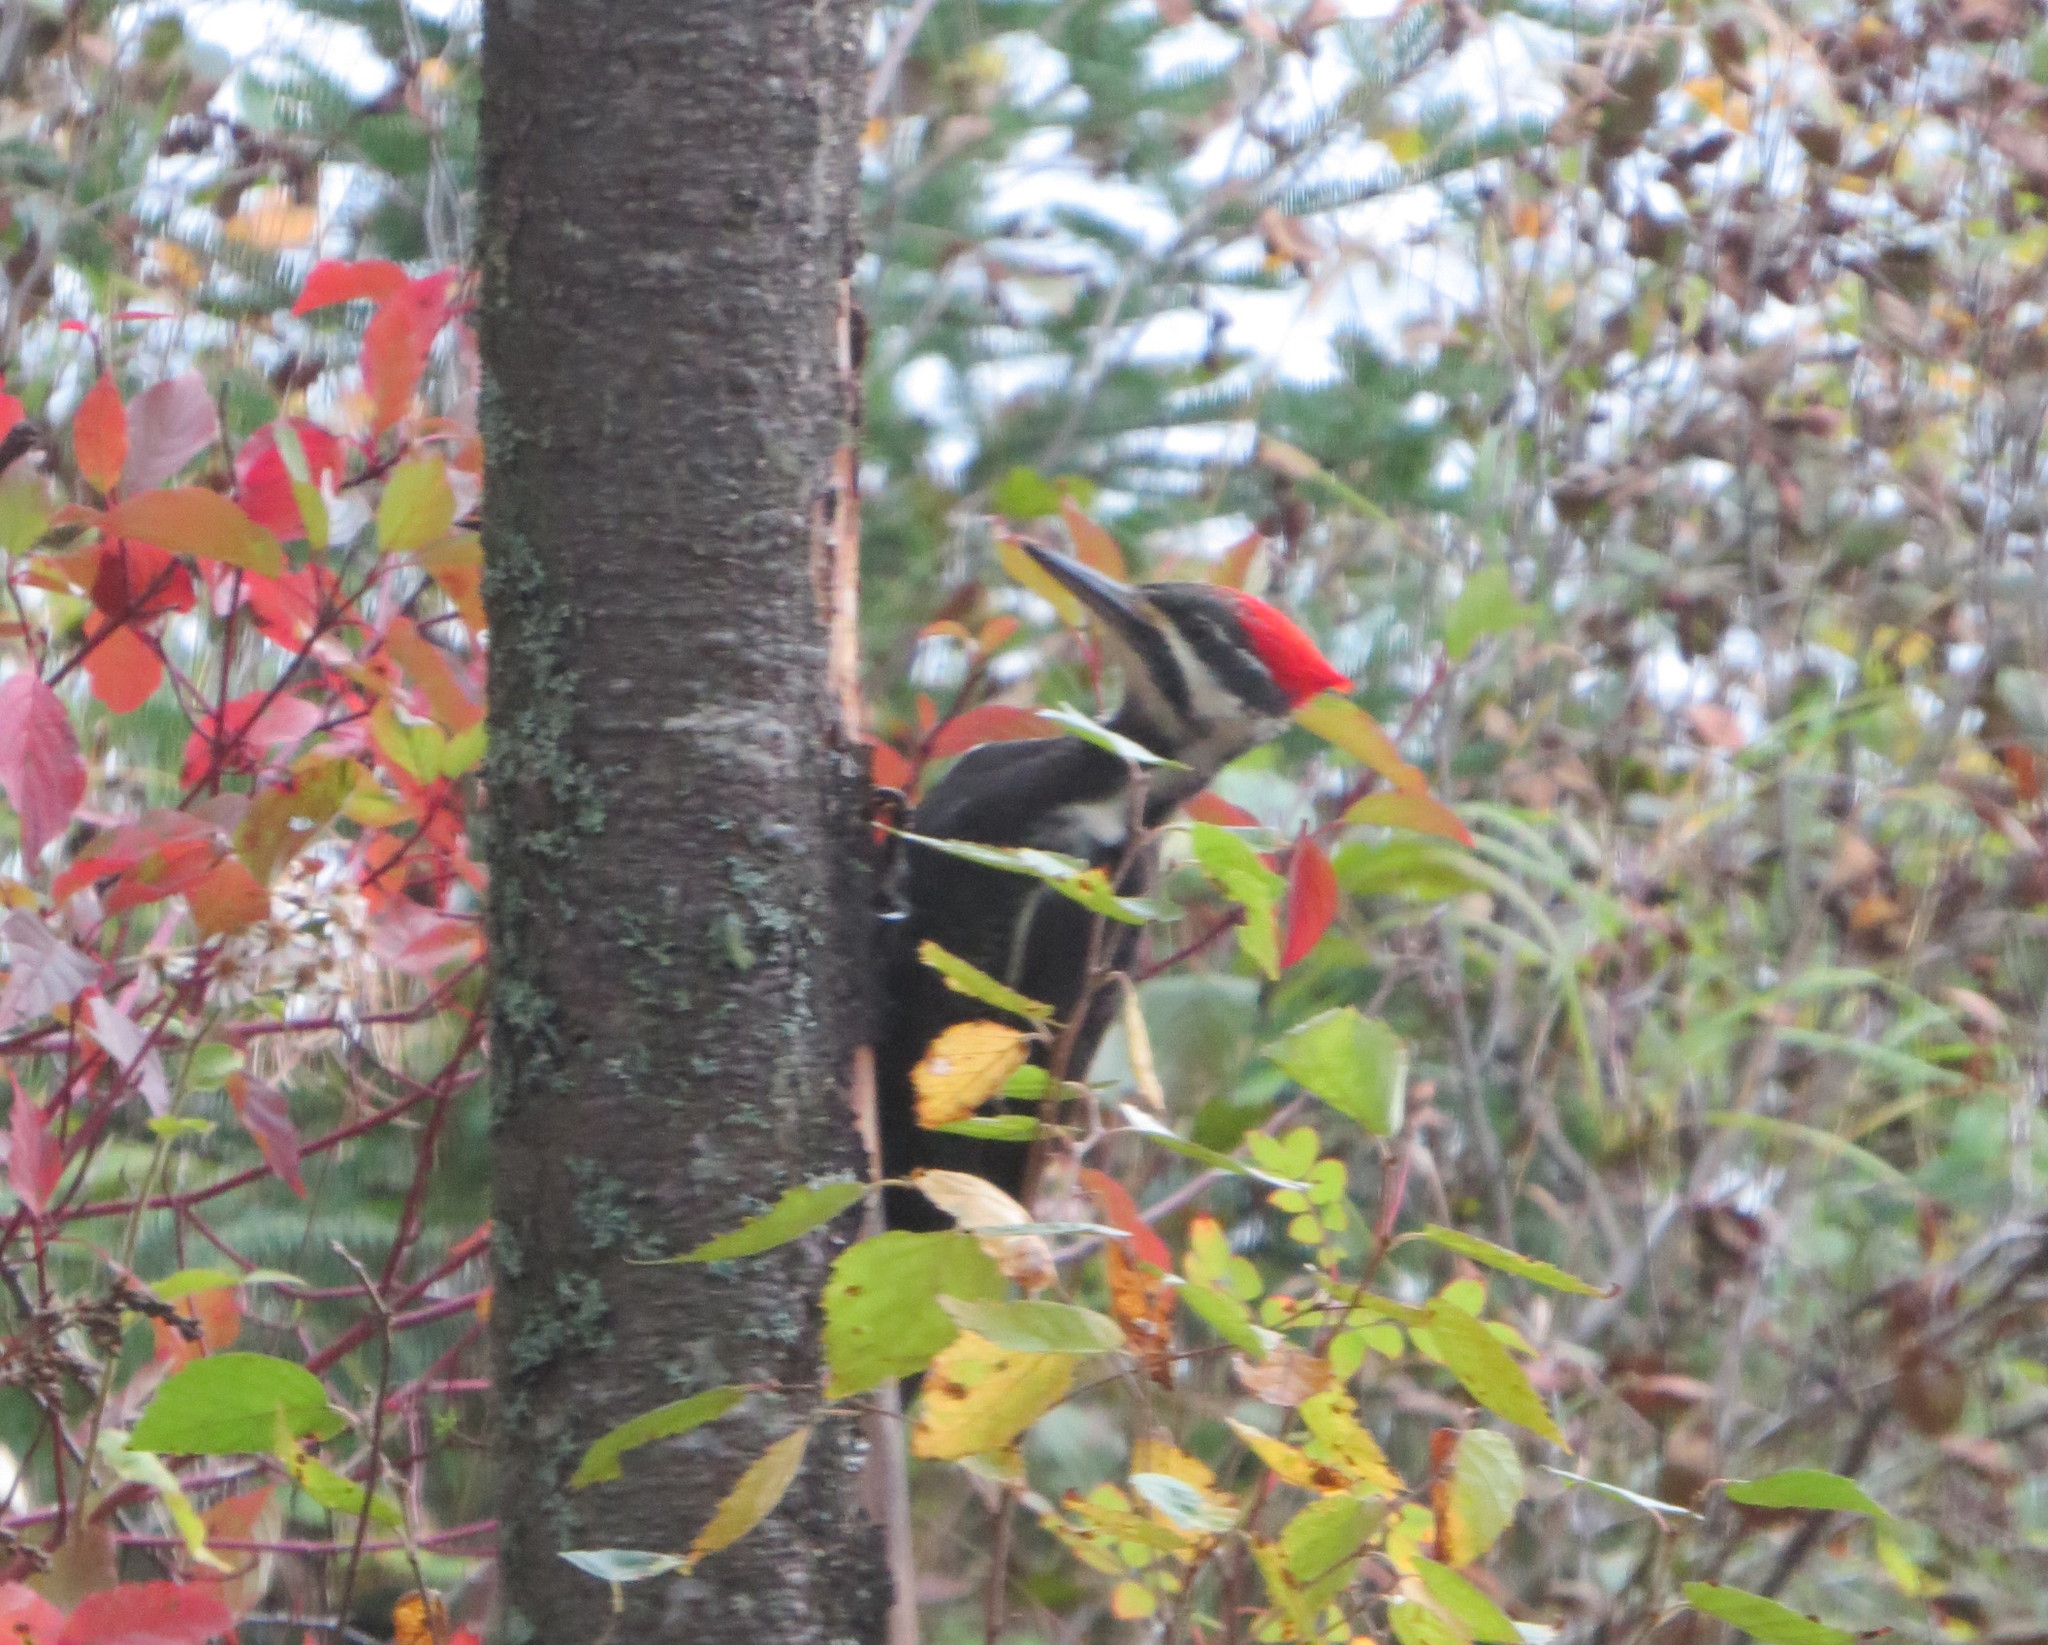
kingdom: Animalia
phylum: Chordata
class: Aves
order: Piciformes
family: Picidae
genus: Dryocopus
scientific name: Dryocopus pileatus
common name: Pileated woodpecker
